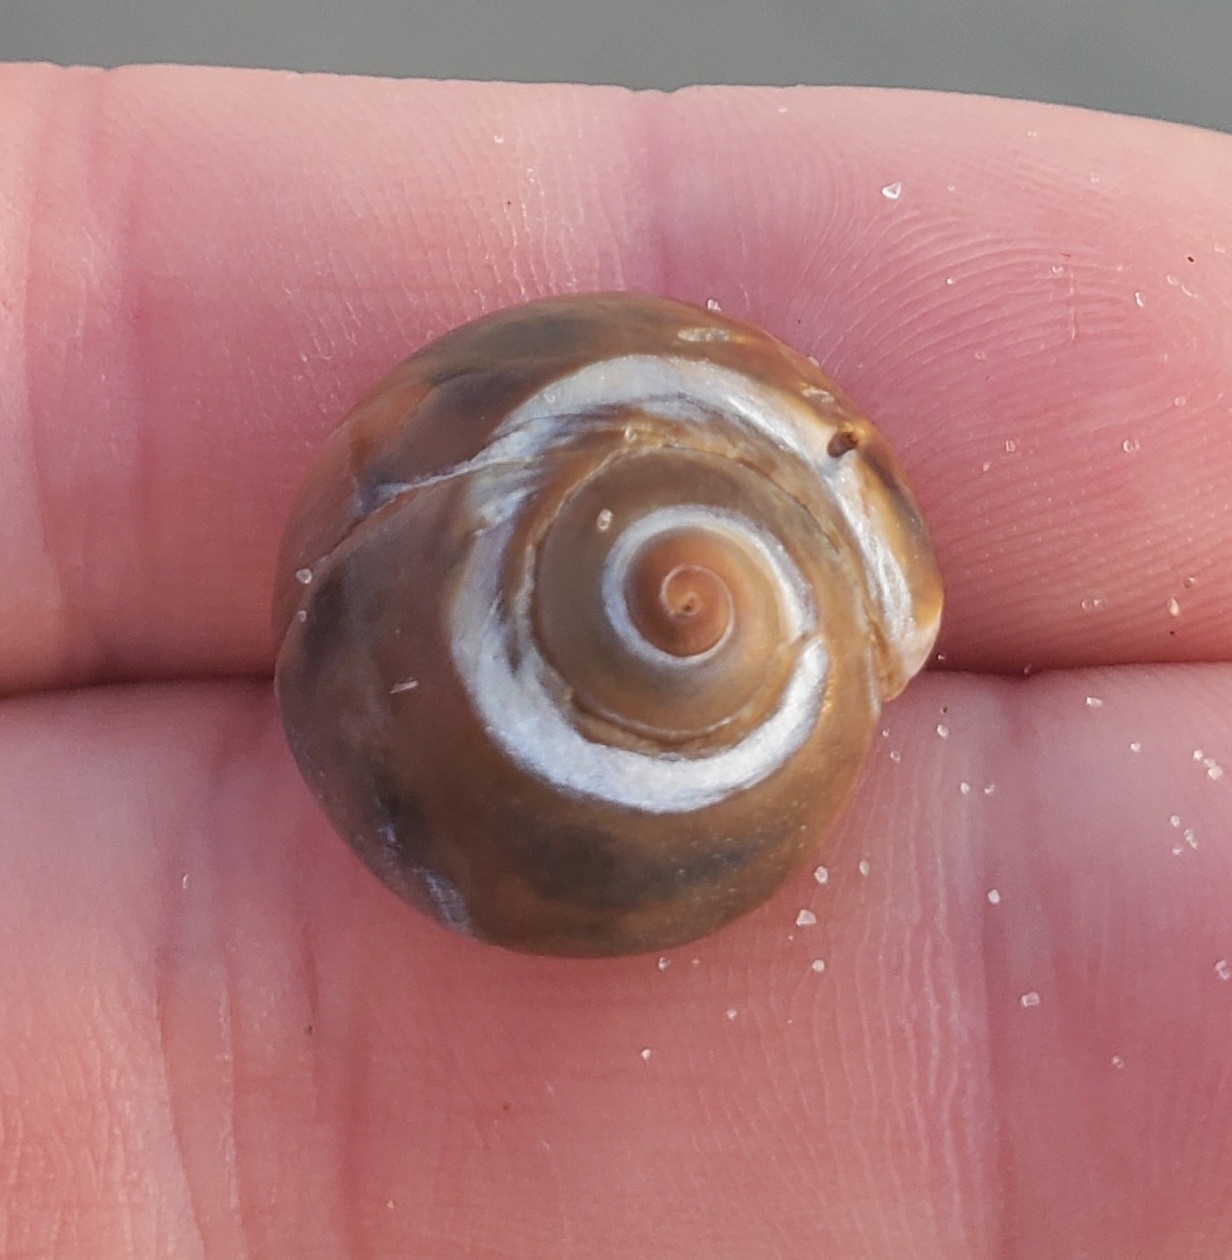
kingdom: Animalia
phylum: Mollusca
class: Gastropoda
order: Littorinimorpha
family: Naticidae
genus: Neverita
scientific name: Neverita duplicata
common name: Lobed moonsnail
